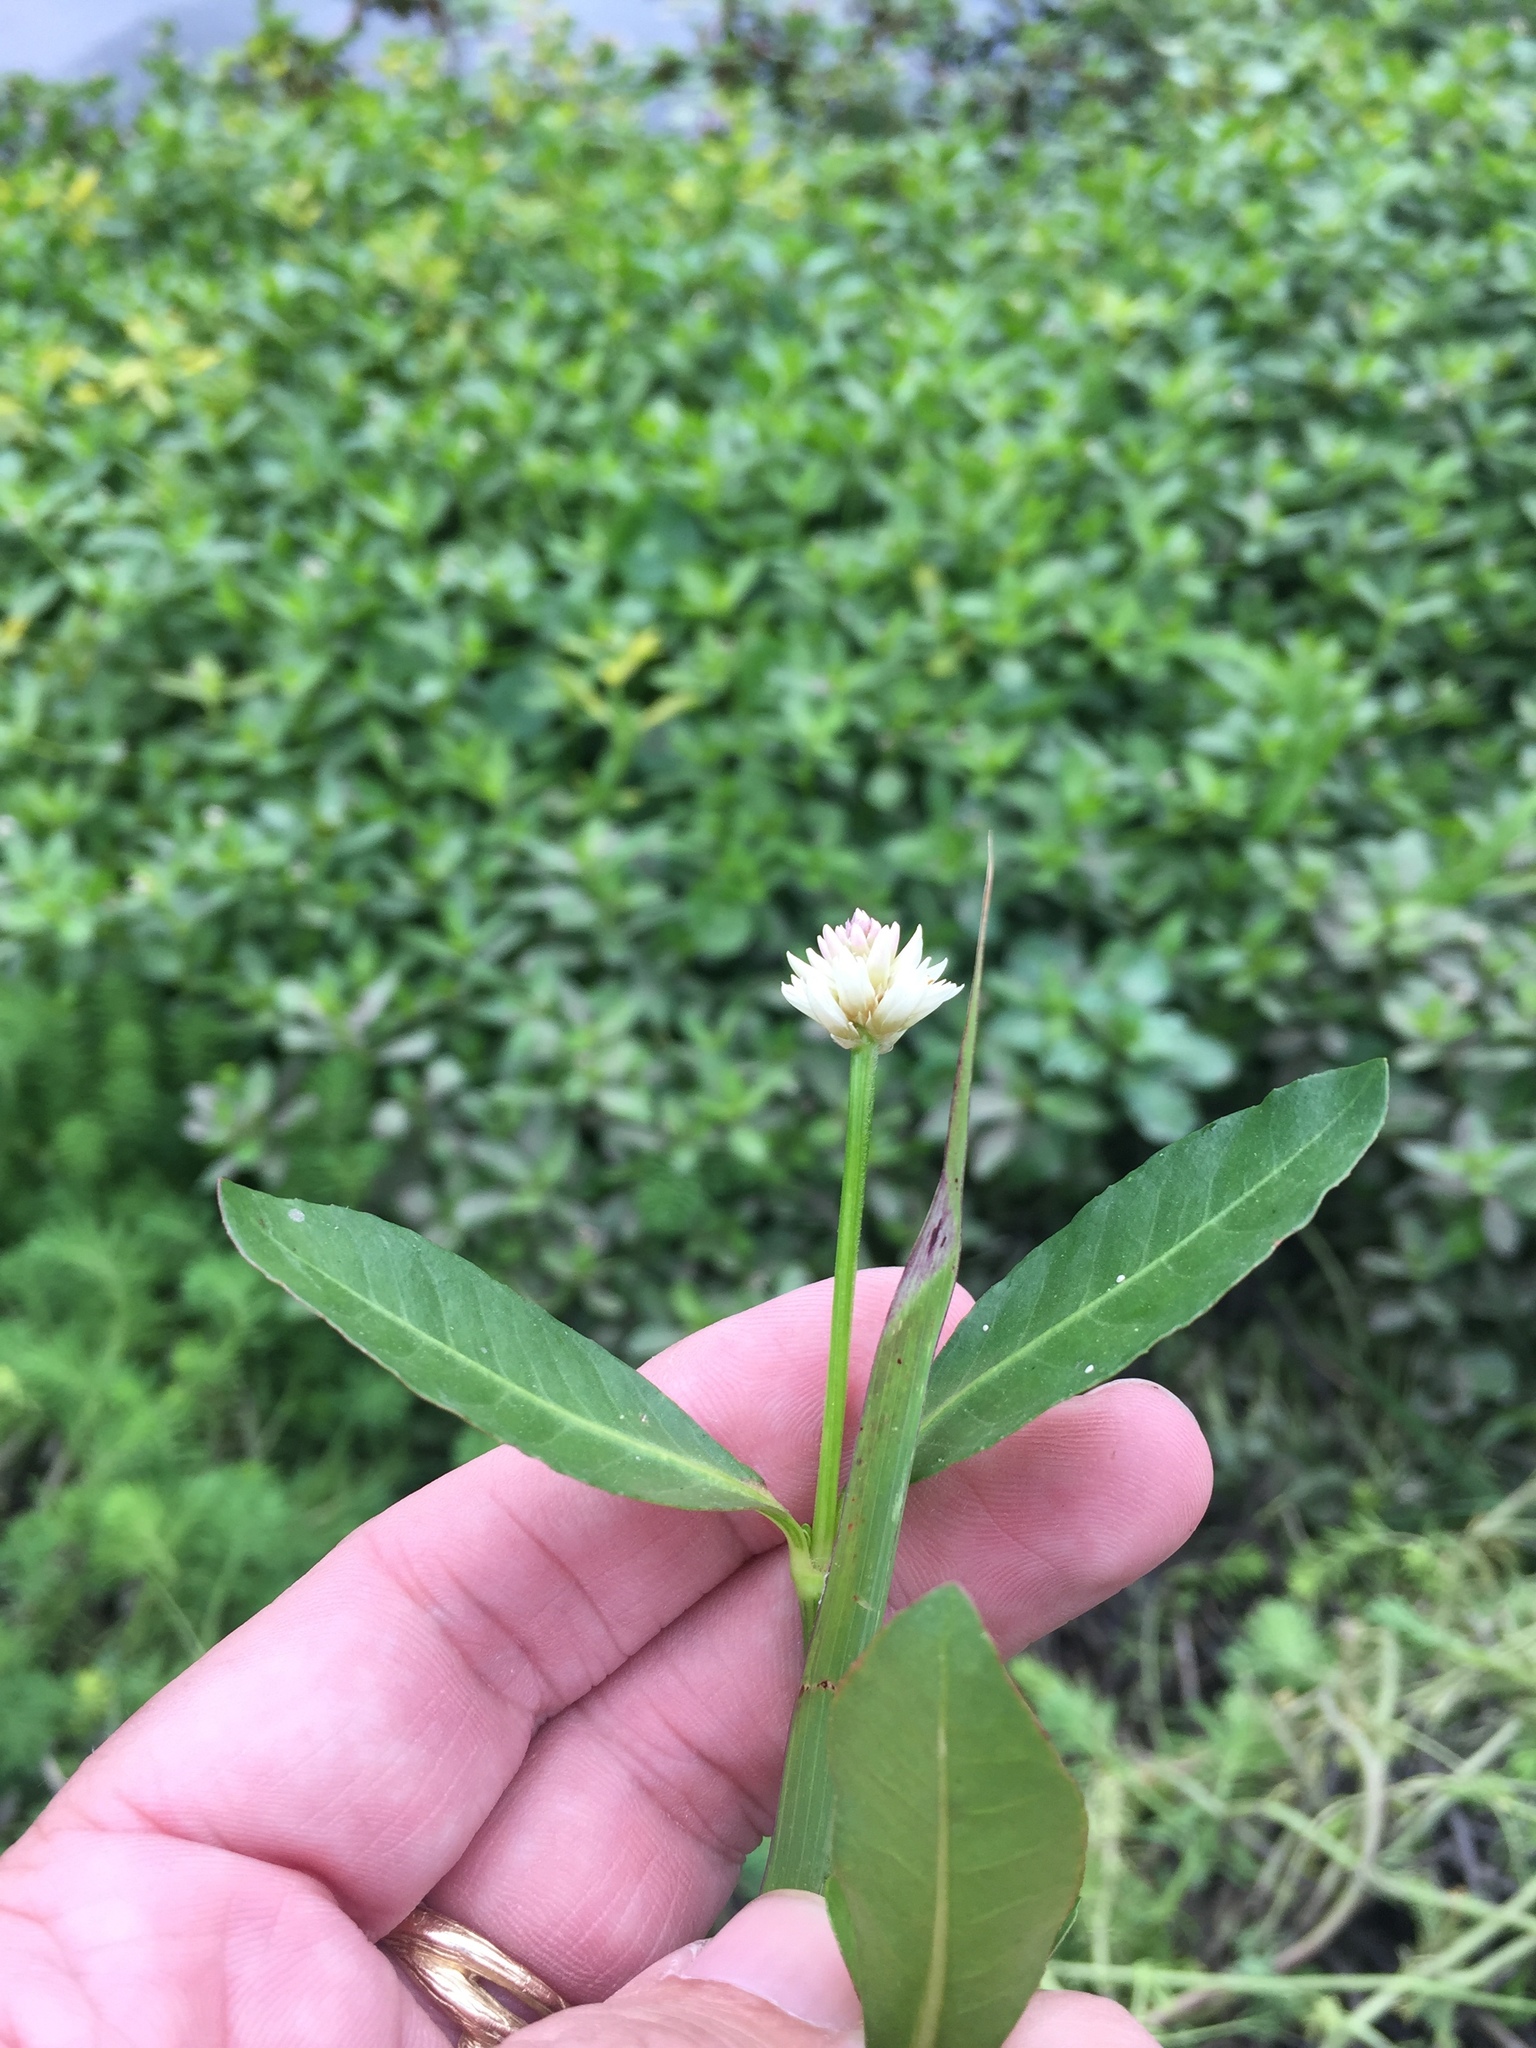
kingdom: Plantae
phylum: Tracheophyta
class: Magnoliopsida
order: Caryophyllales
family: Amaranthaceae
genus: Alternanthera
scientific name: Alternanthera philoxeroides
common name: Alligatorweed
